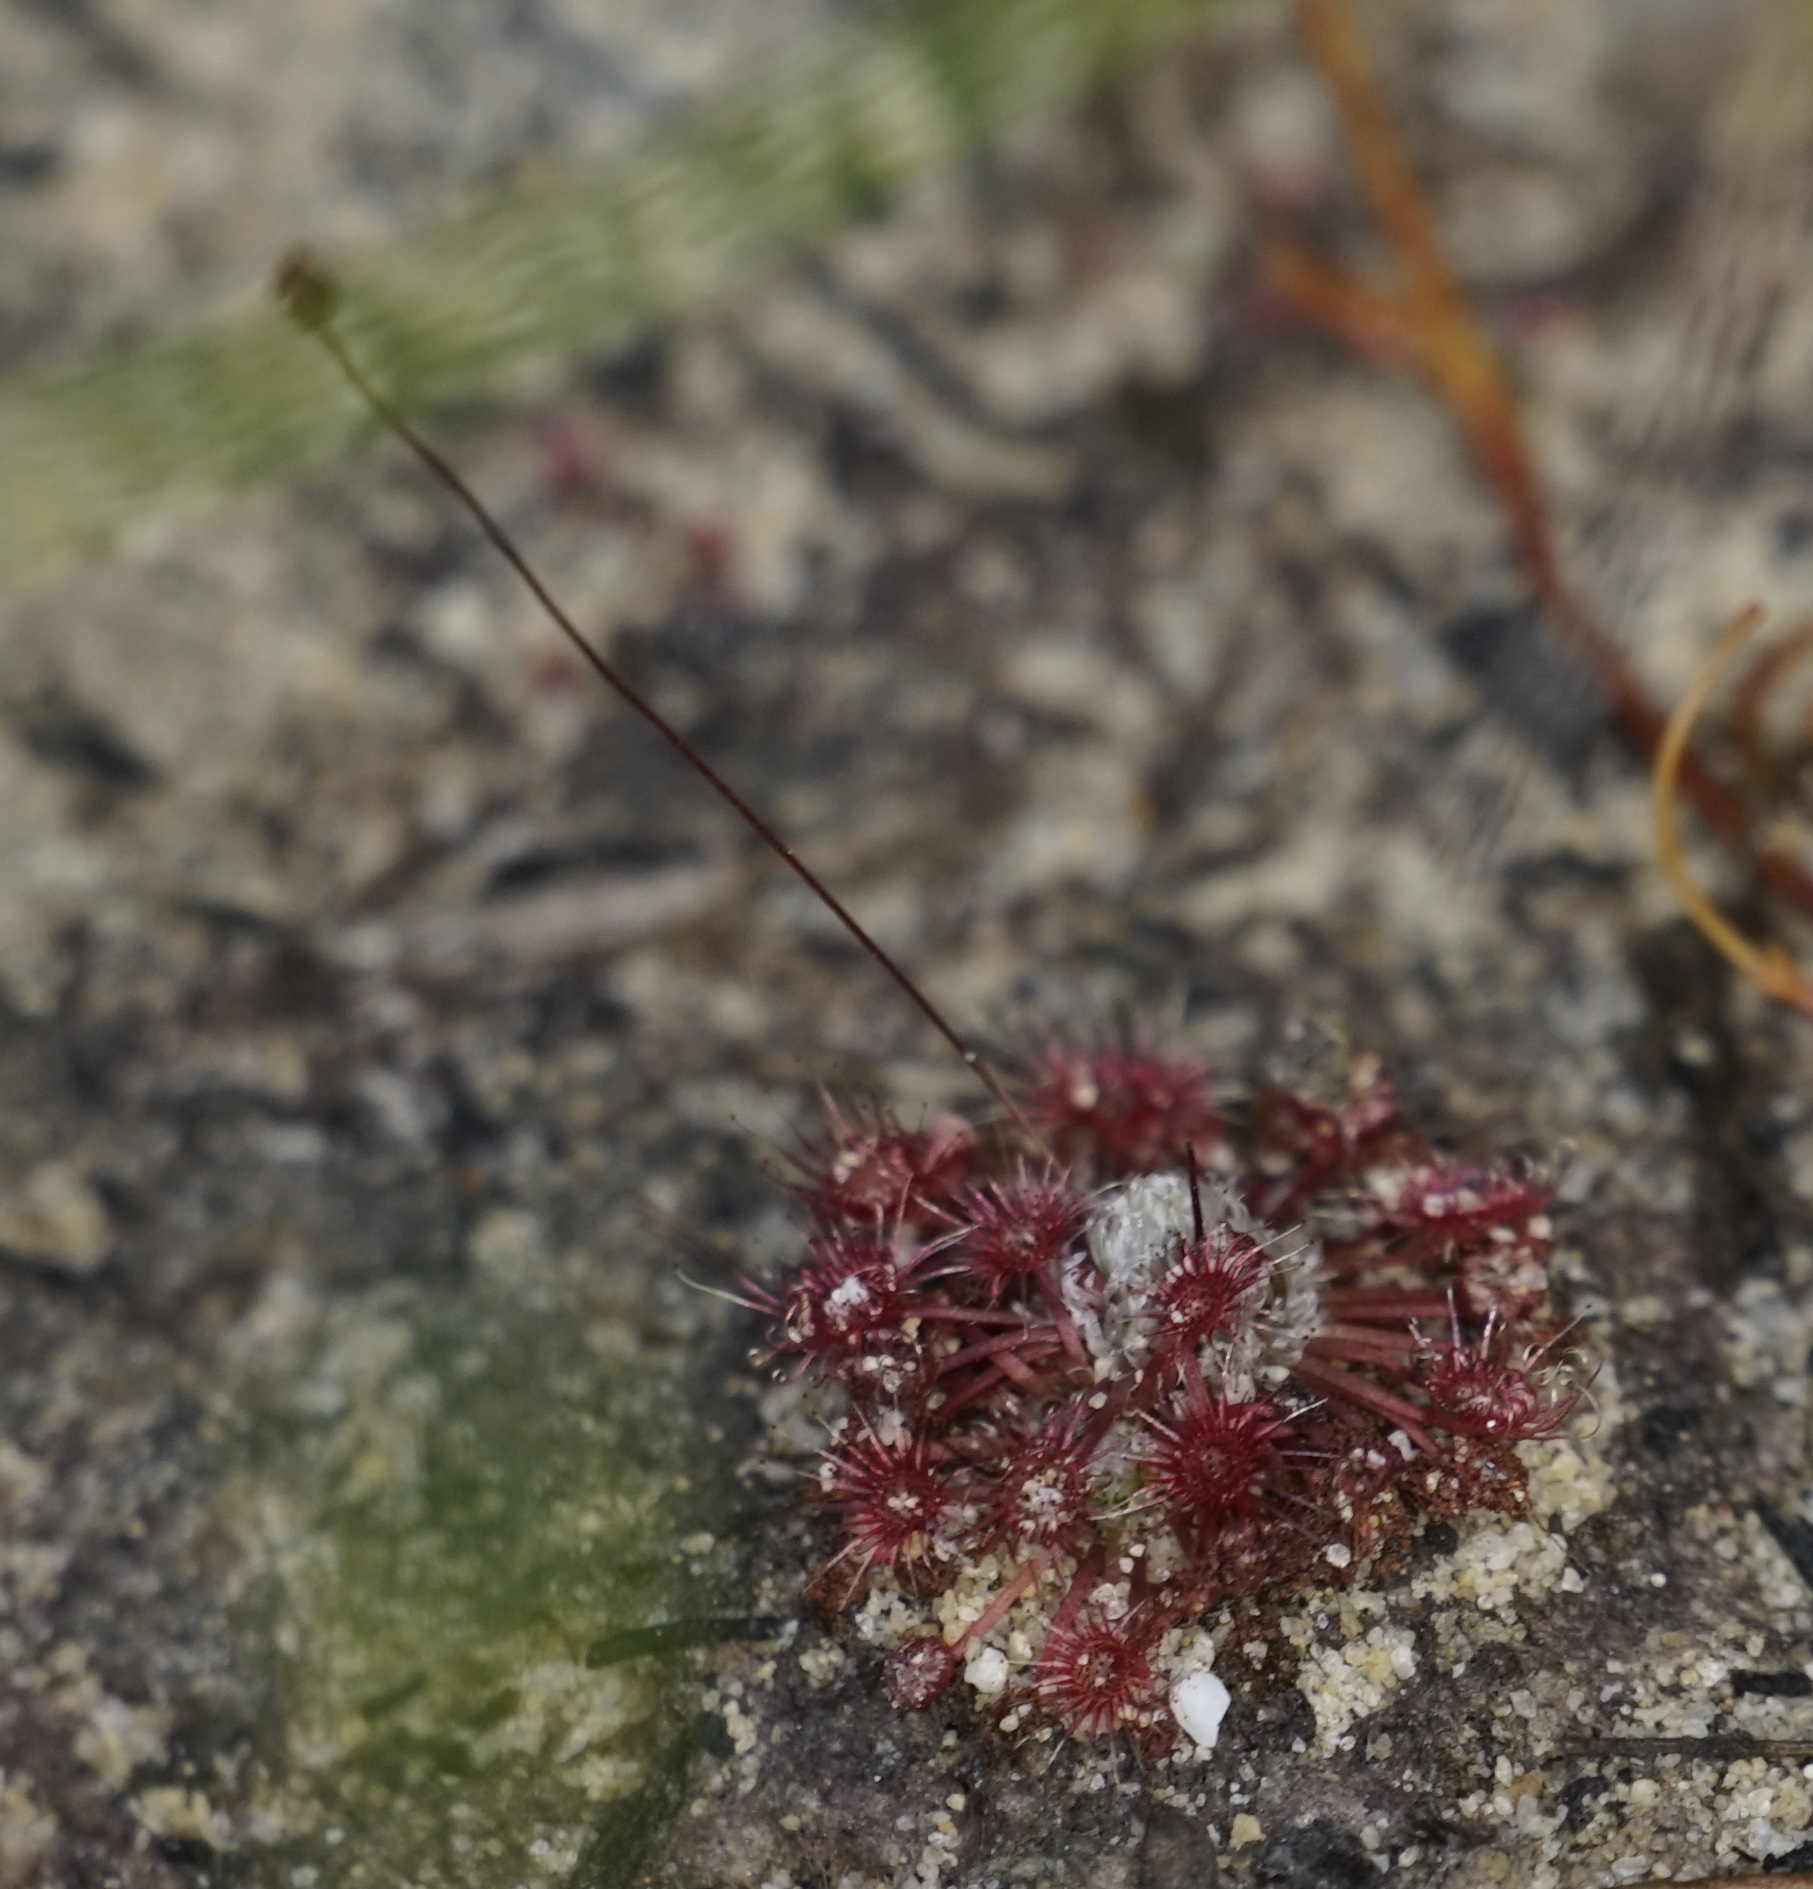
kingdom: Plantae
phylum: Tracheophyta
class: Magnoliopsida
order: Caryophyllales
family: Droseraceae
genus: Drosera
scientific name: Drosera pygmaea
